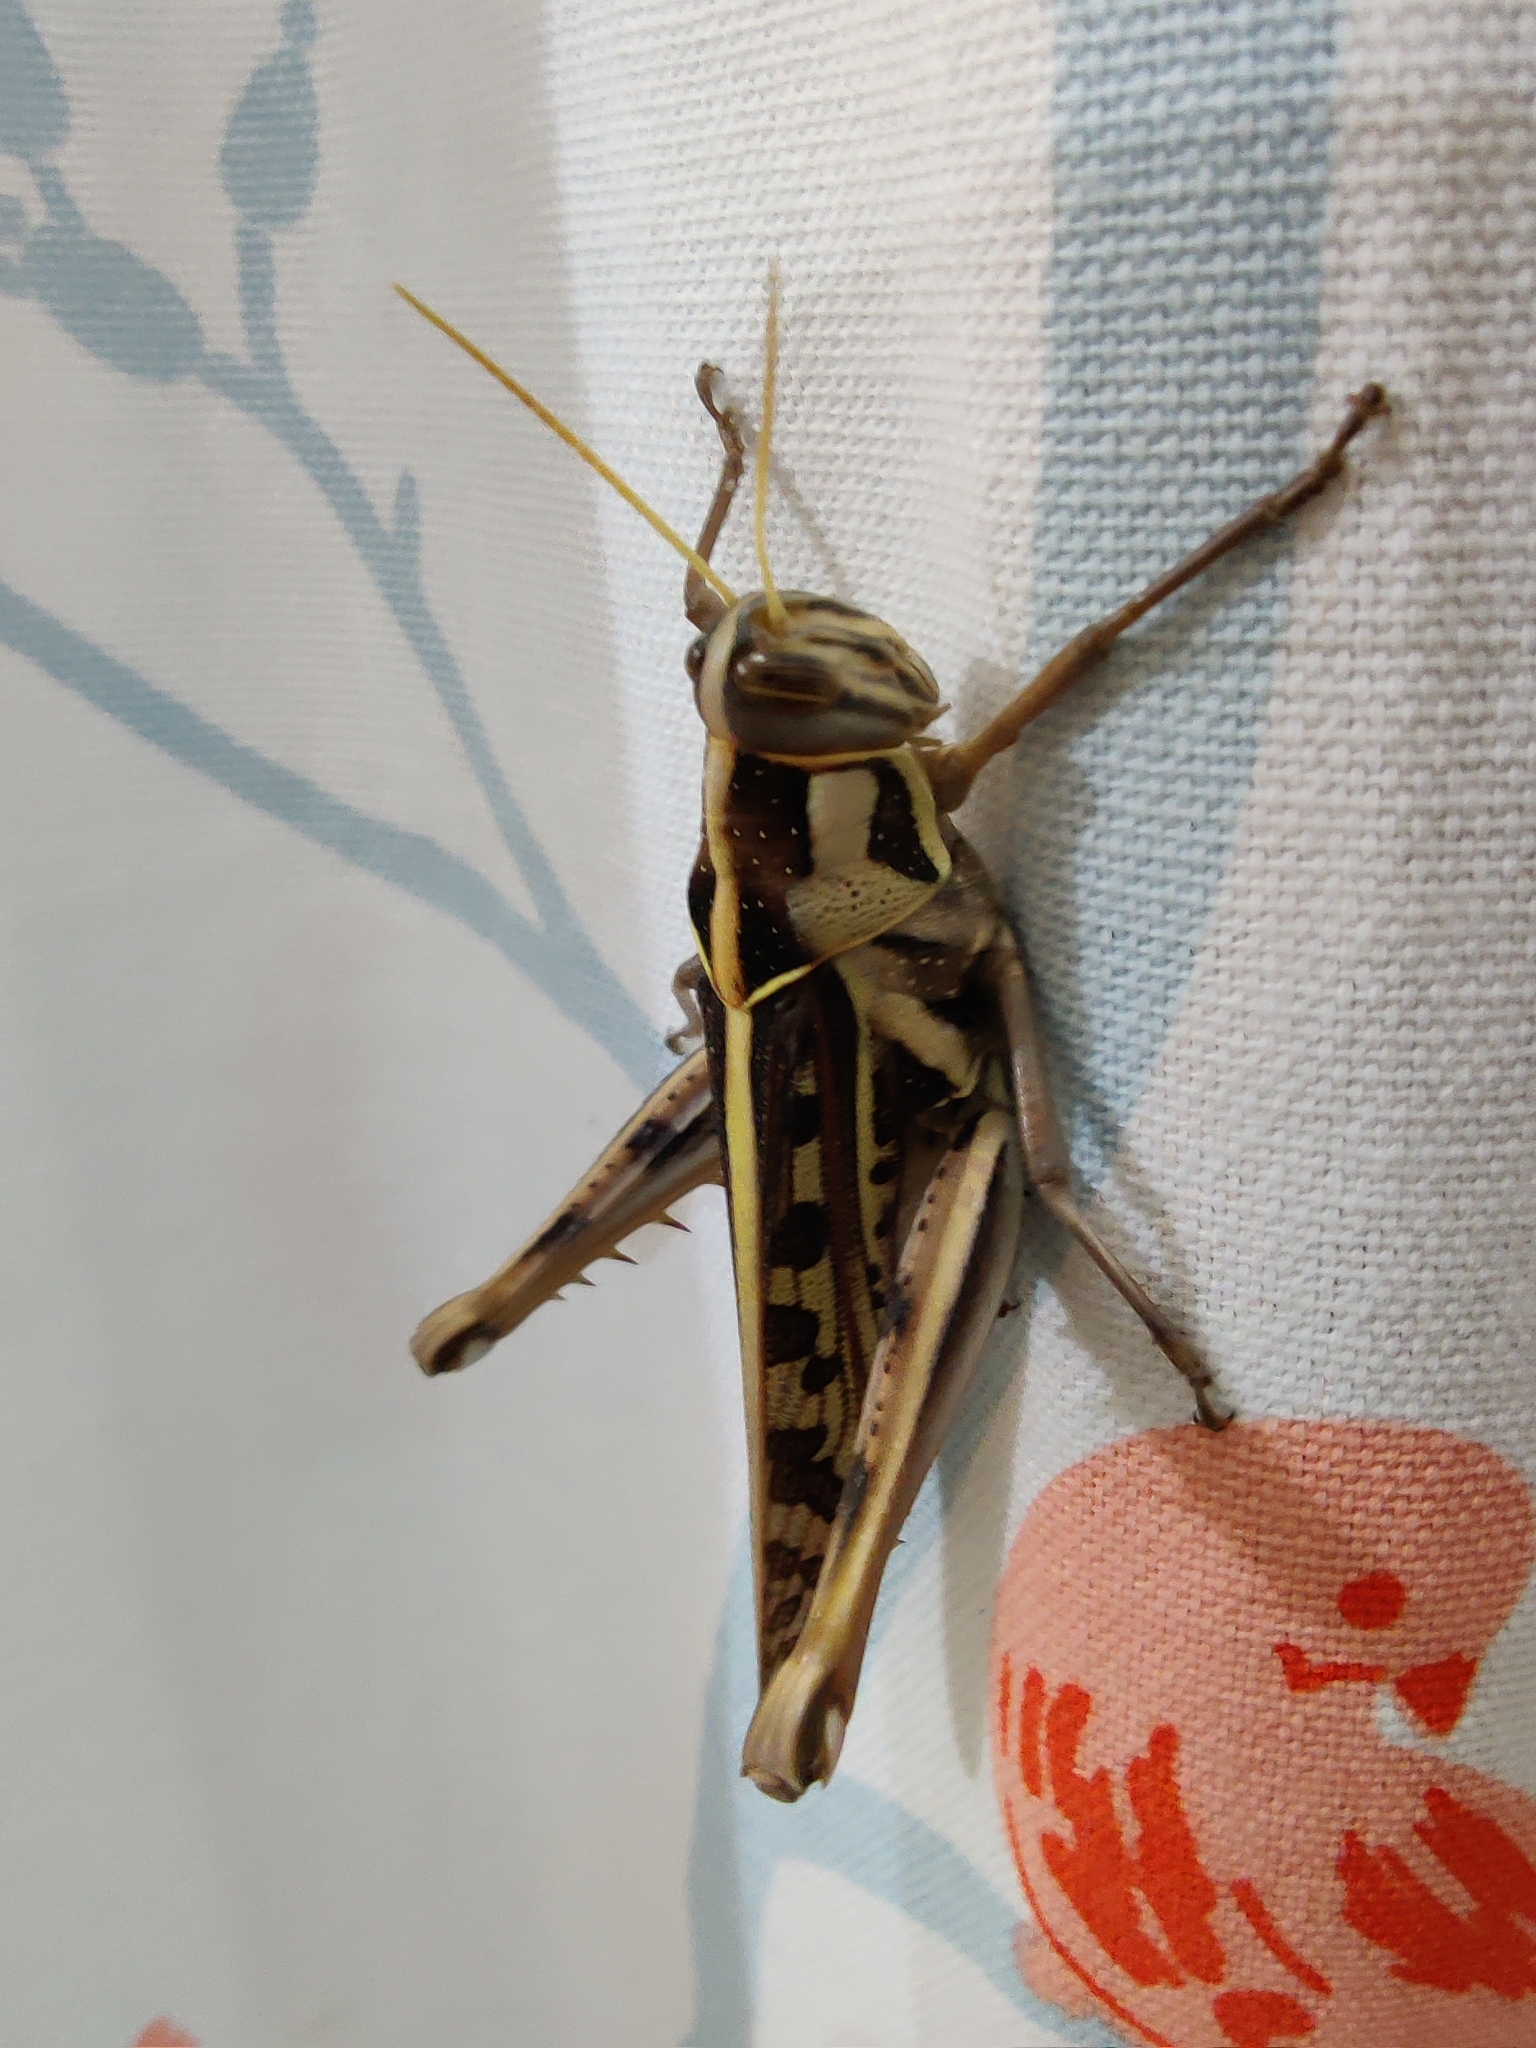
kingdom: Animalia
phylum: Arthropoda
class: Insecta
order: Orthoptera
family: Acrididae
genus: Cyrtacanthacris
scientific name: Cyrtacanthacris tatarica
